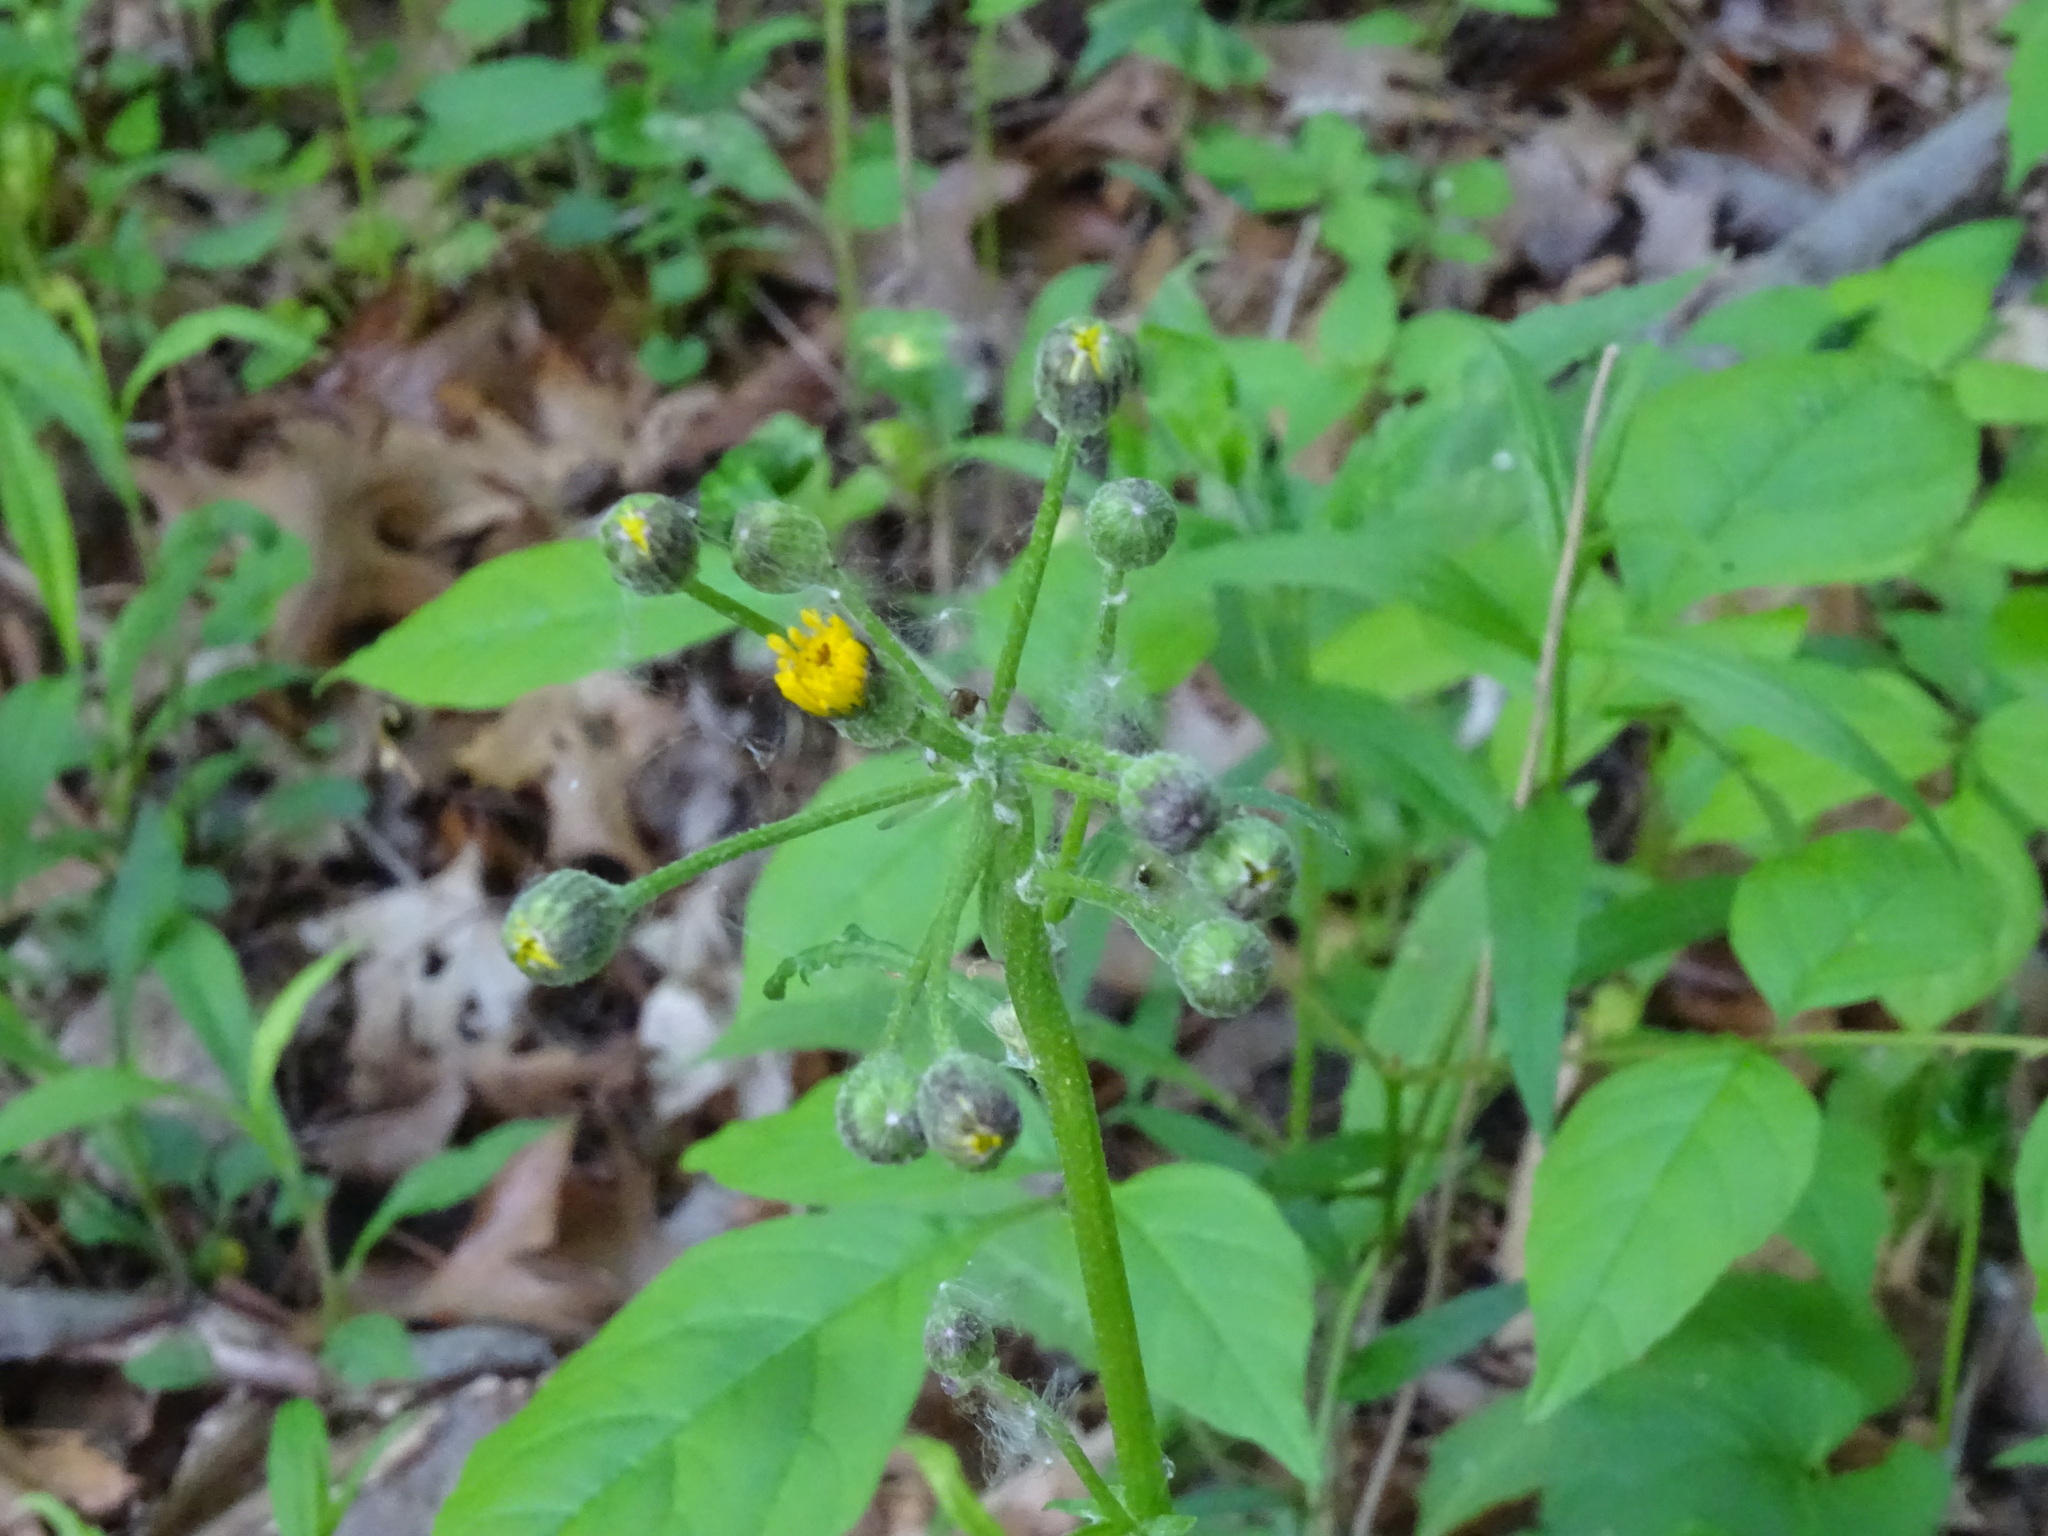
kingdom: Plantae
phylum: Tracheophyta
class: Magnoliopsida
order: Asterales
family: Asteraceae
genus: Packera
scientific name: Packera aurea
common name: Golden groundsel
